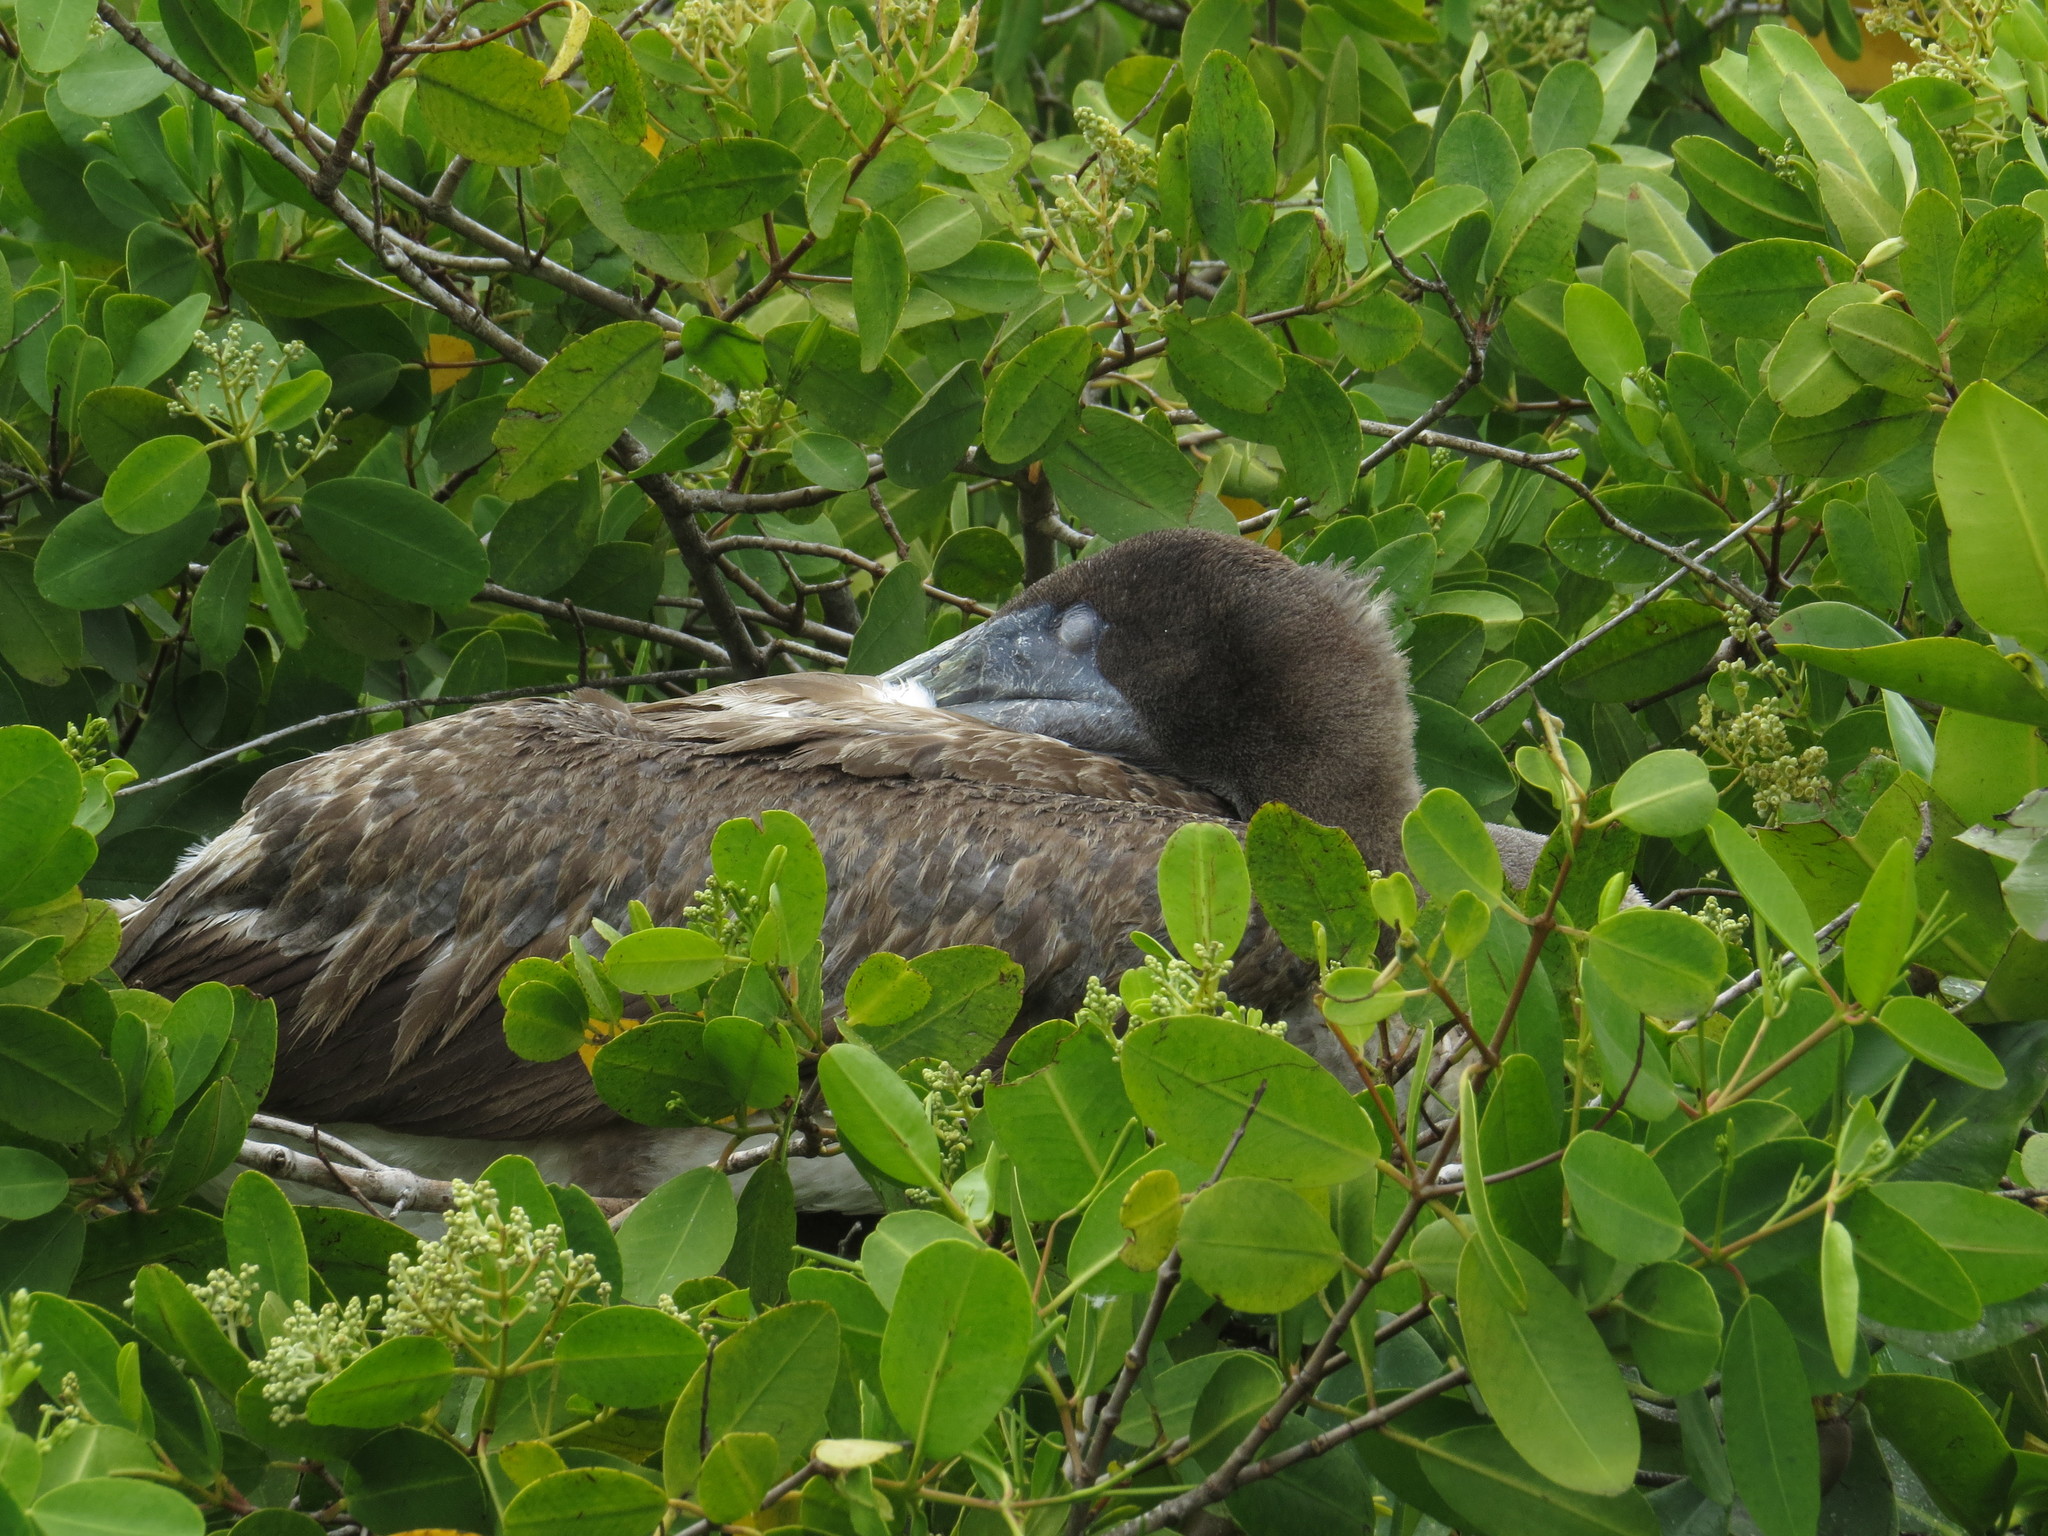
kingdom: Animalia
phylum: Chordata
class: Aves
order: Pelecaniformes
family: Pelecanidae
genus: Pelecanus
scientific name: Pelecanus occidentalis
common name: Brown pelican
